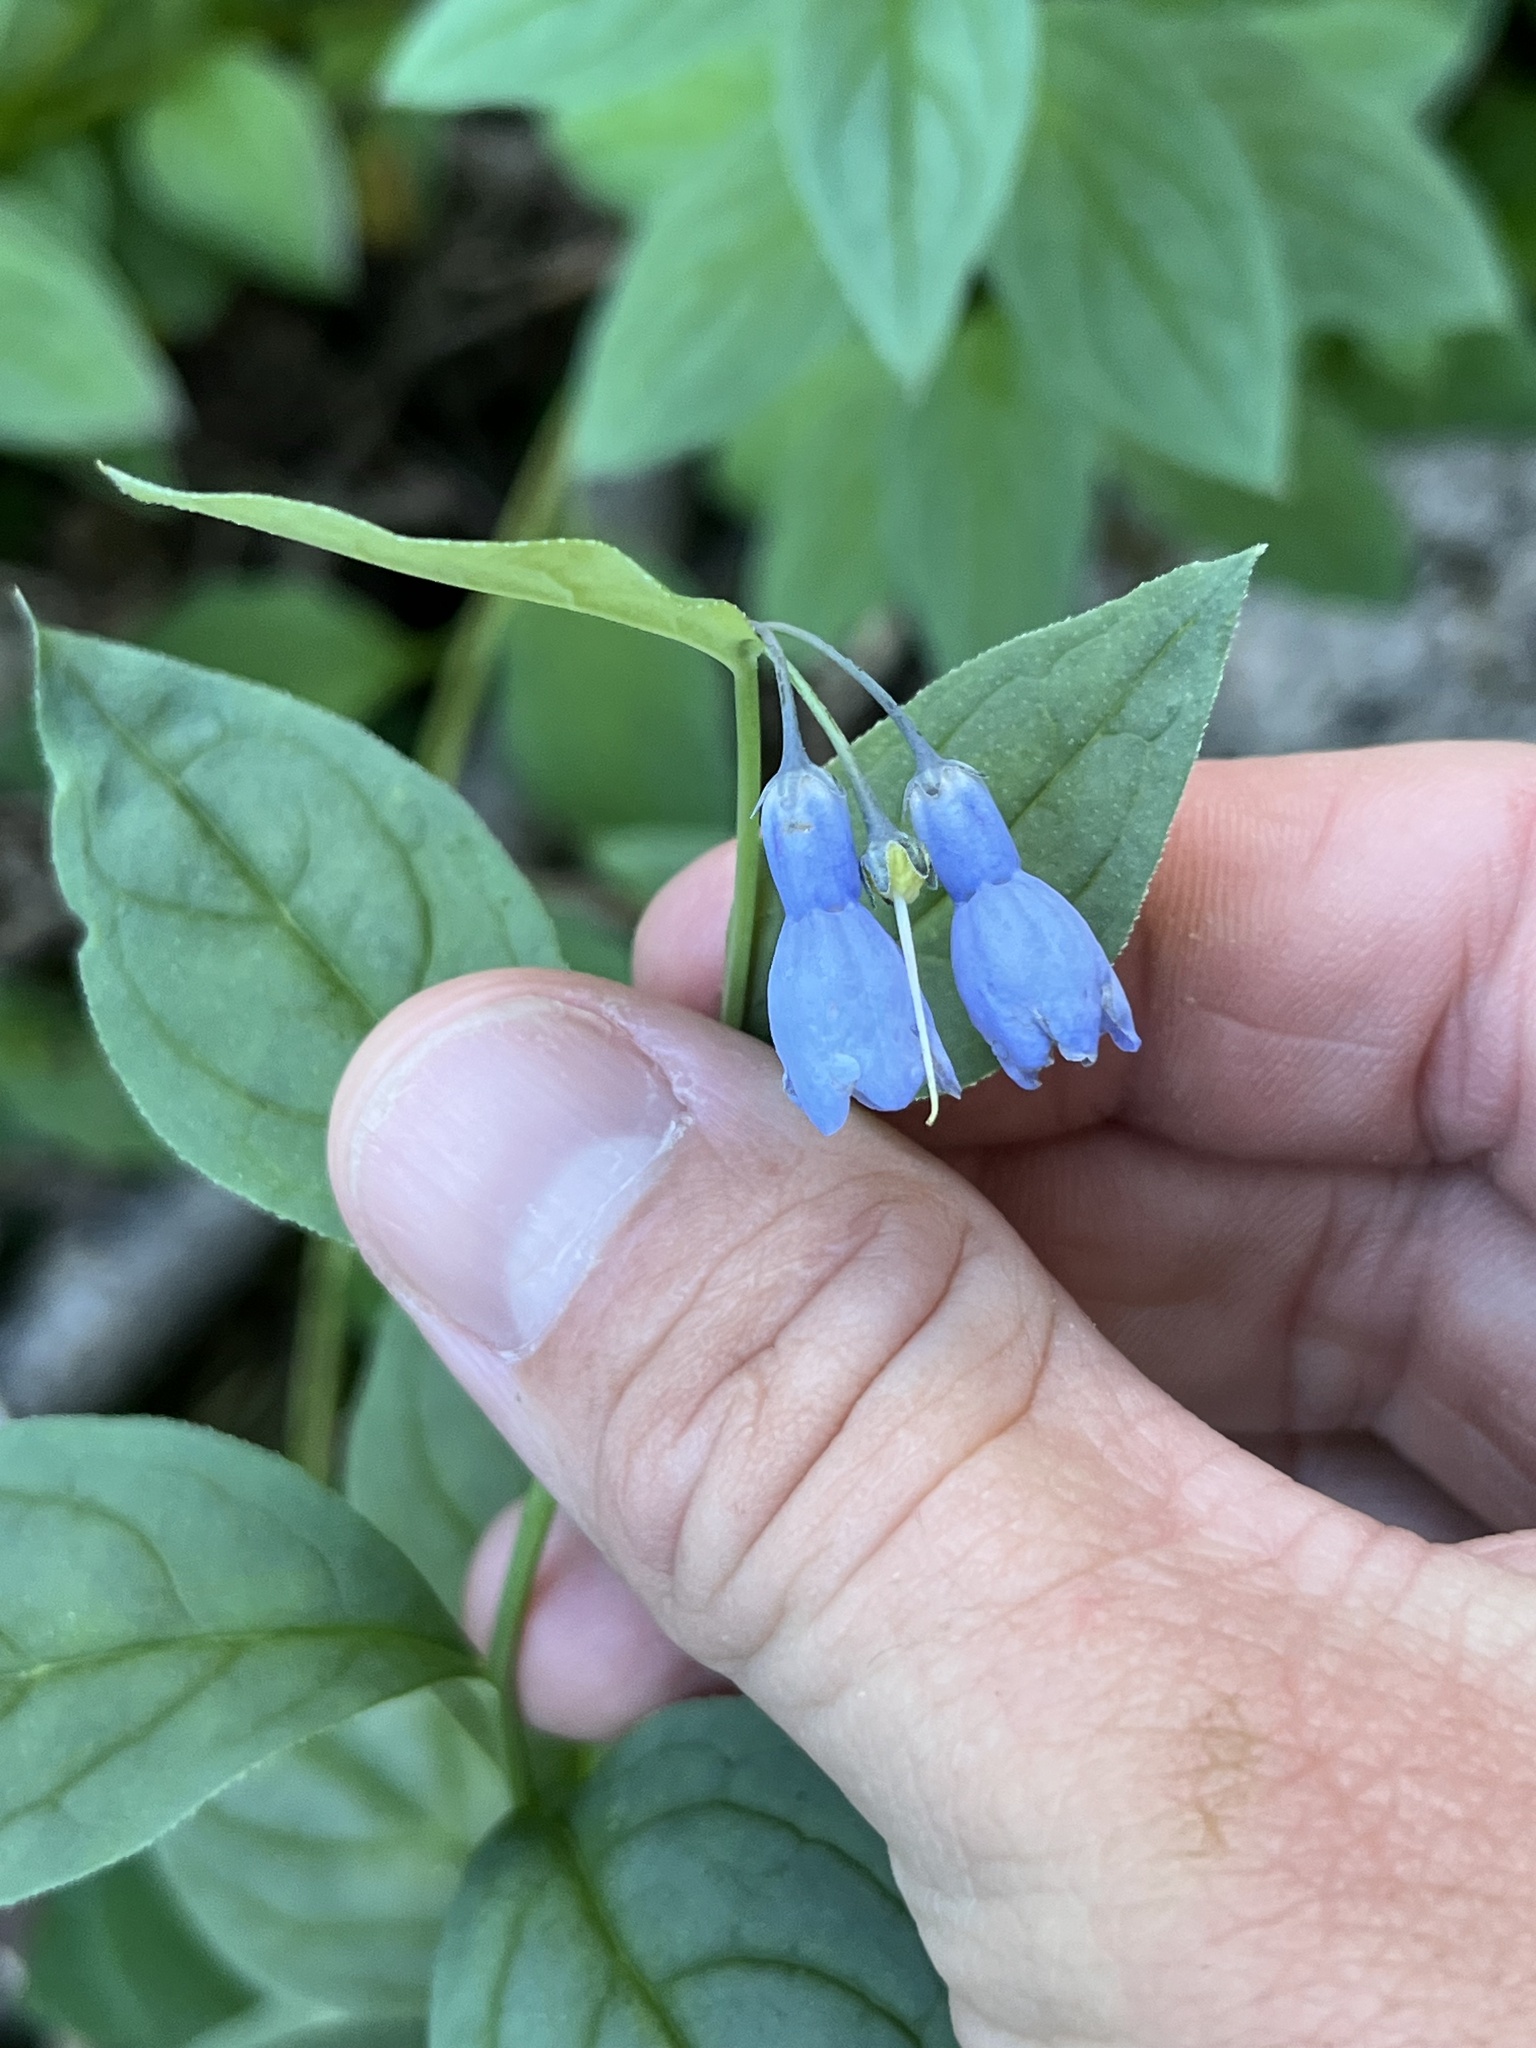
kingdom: Plantae
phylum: Tracheophyta
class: Magnoliopsida
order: Boraginales
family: Boraginaceae
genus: Mertensia
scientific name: Mertensia ciliata
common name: Tall chiming-bells
